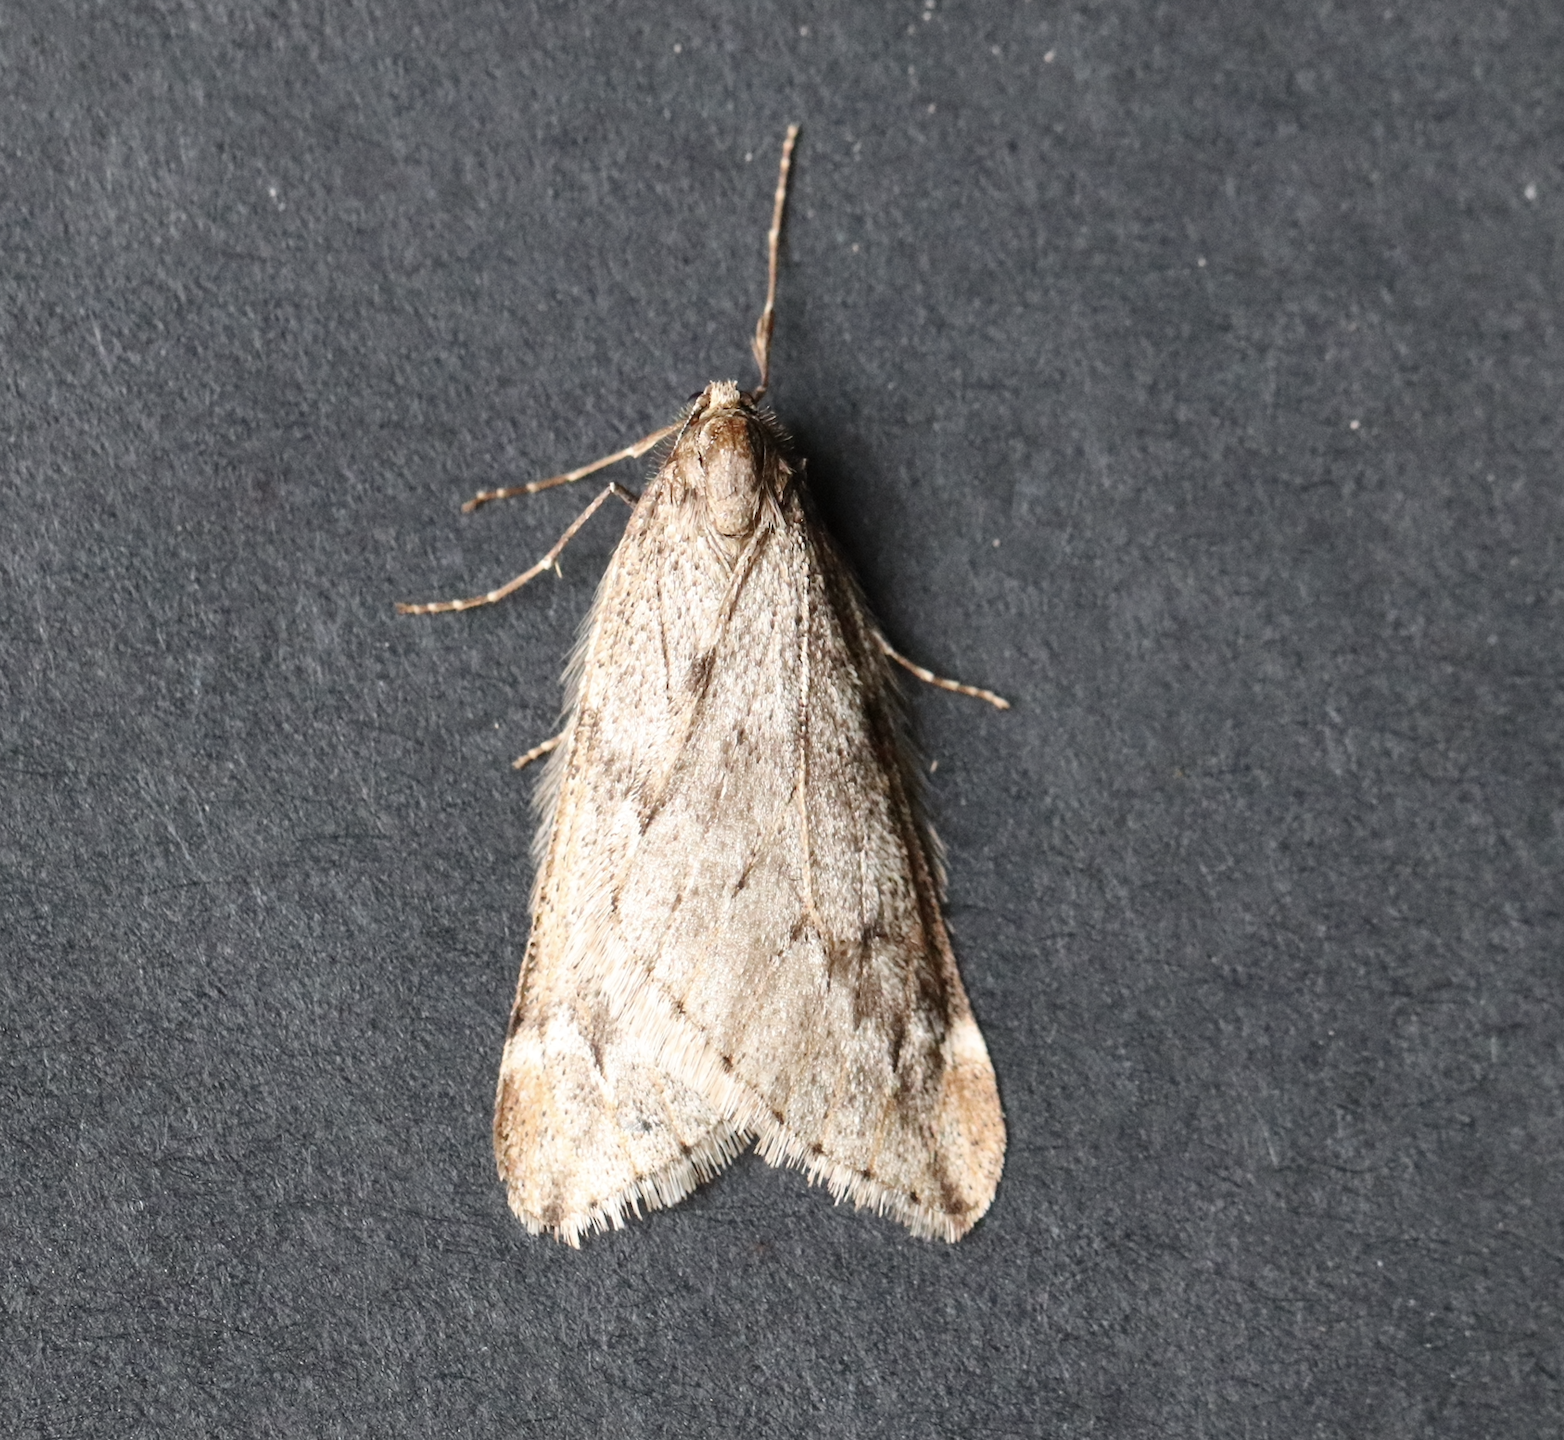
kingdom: Animalia
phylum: Arthropoda
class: Insecta
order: Lepidoptera
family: Geometridae
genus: Alsophila
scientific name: Alsophila aescularia
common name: March moth
